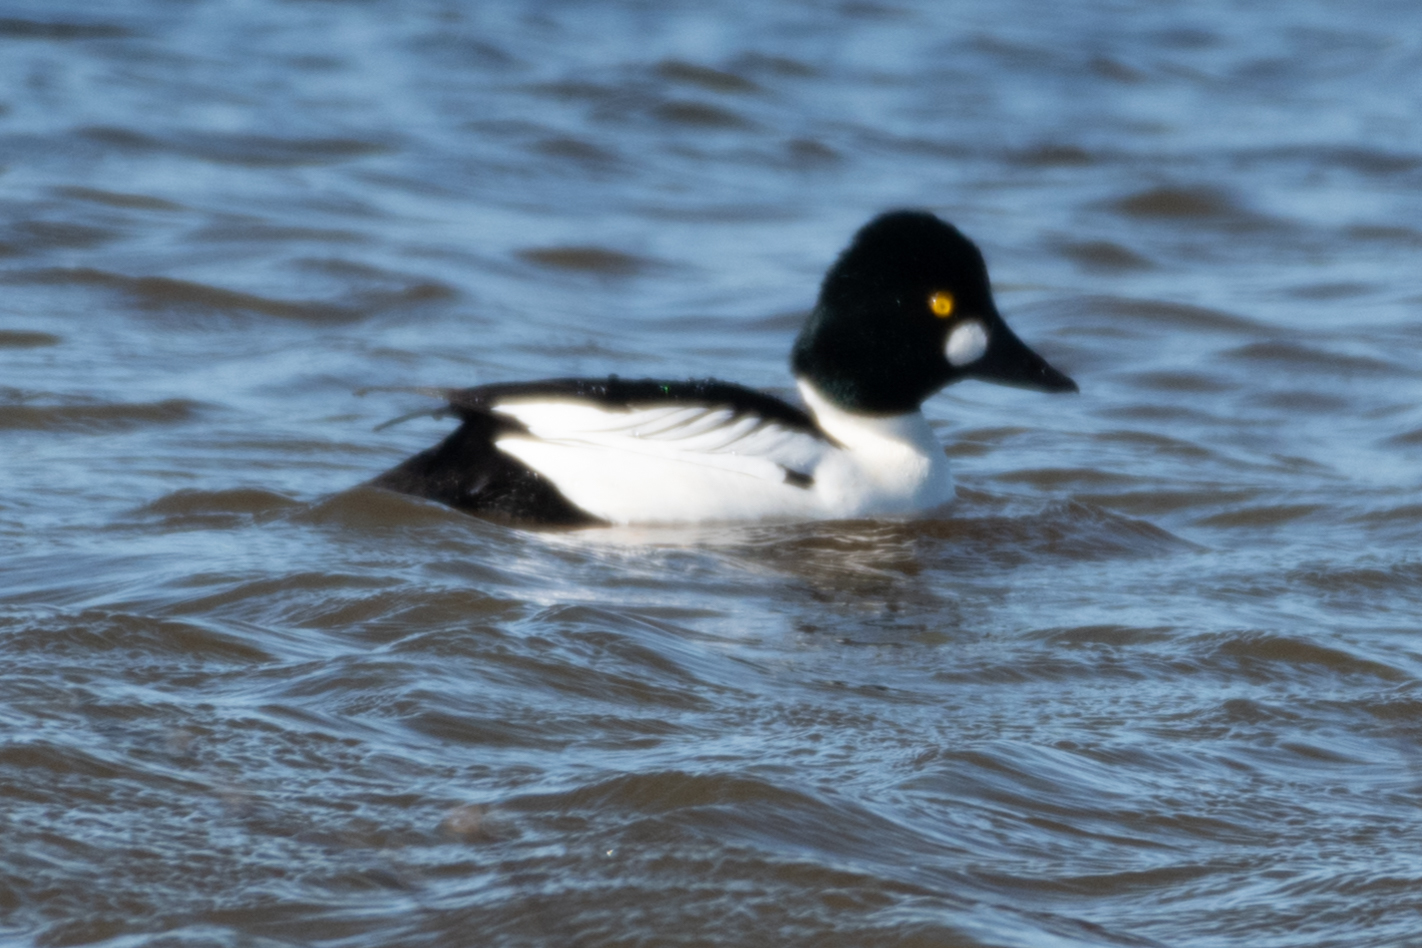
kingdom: Animalia
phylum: Chordata
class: Aves
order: Anseriformes
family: Anatidae
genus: Bucephala
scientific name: Bucephala clangula
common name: Common goldeneye
